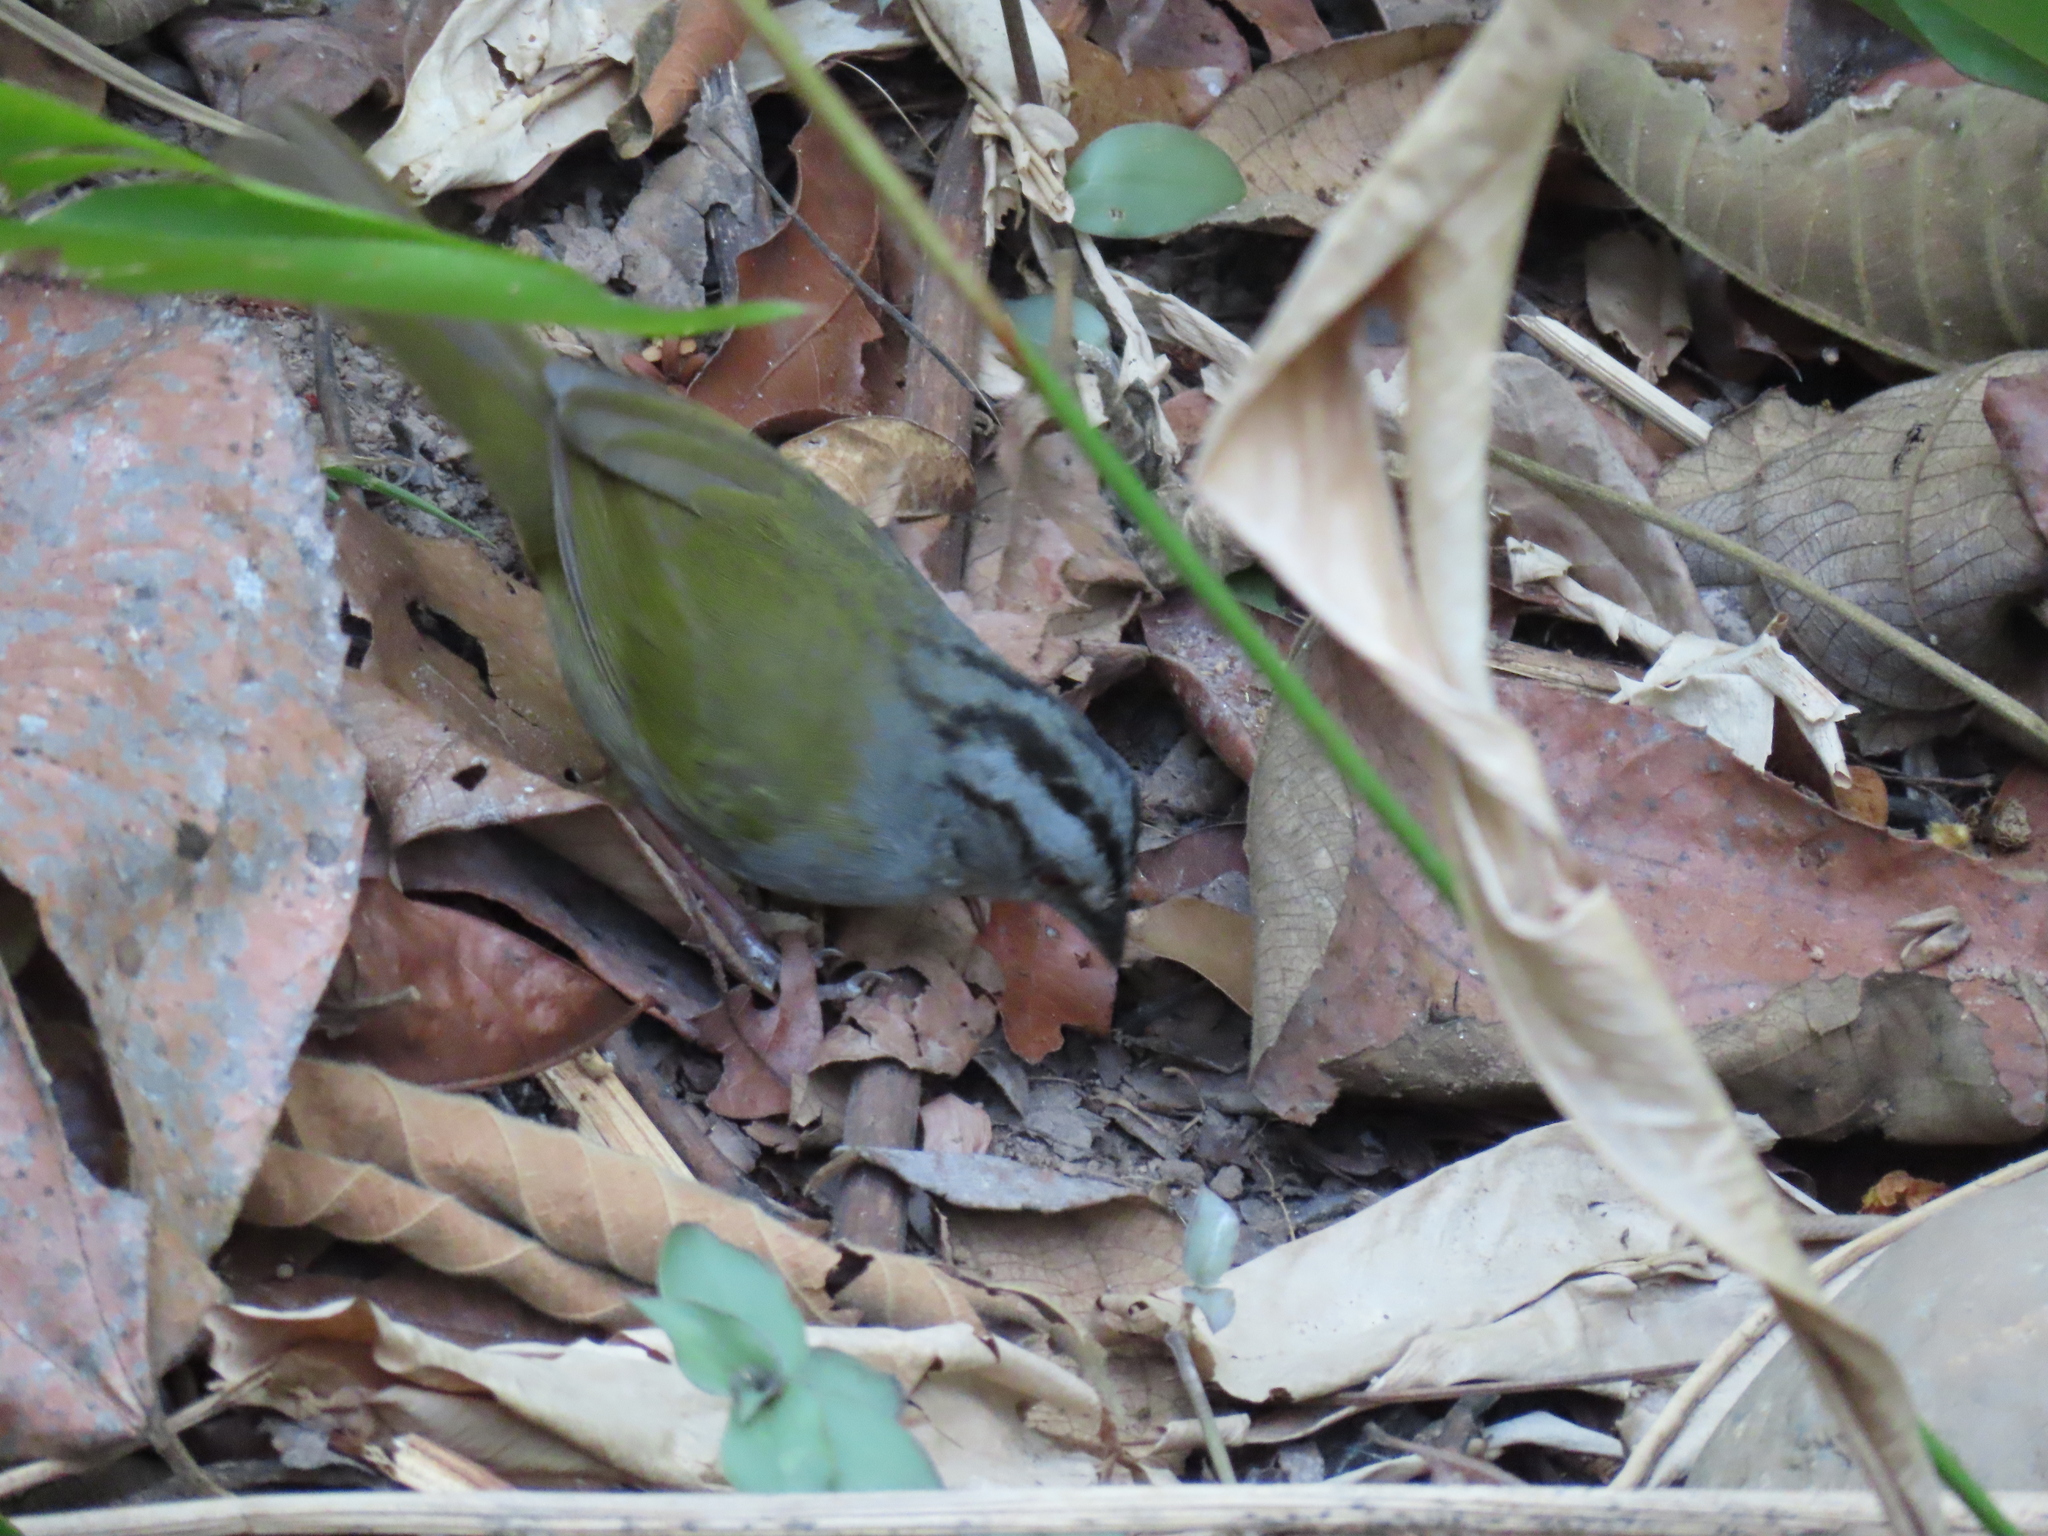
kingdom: Animalia
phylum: Chordata
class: Aves
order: Passeriformes
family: Passerellidae
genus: Arremonops
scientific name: Arremonops chloronotus
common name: Green-backed sparrow
